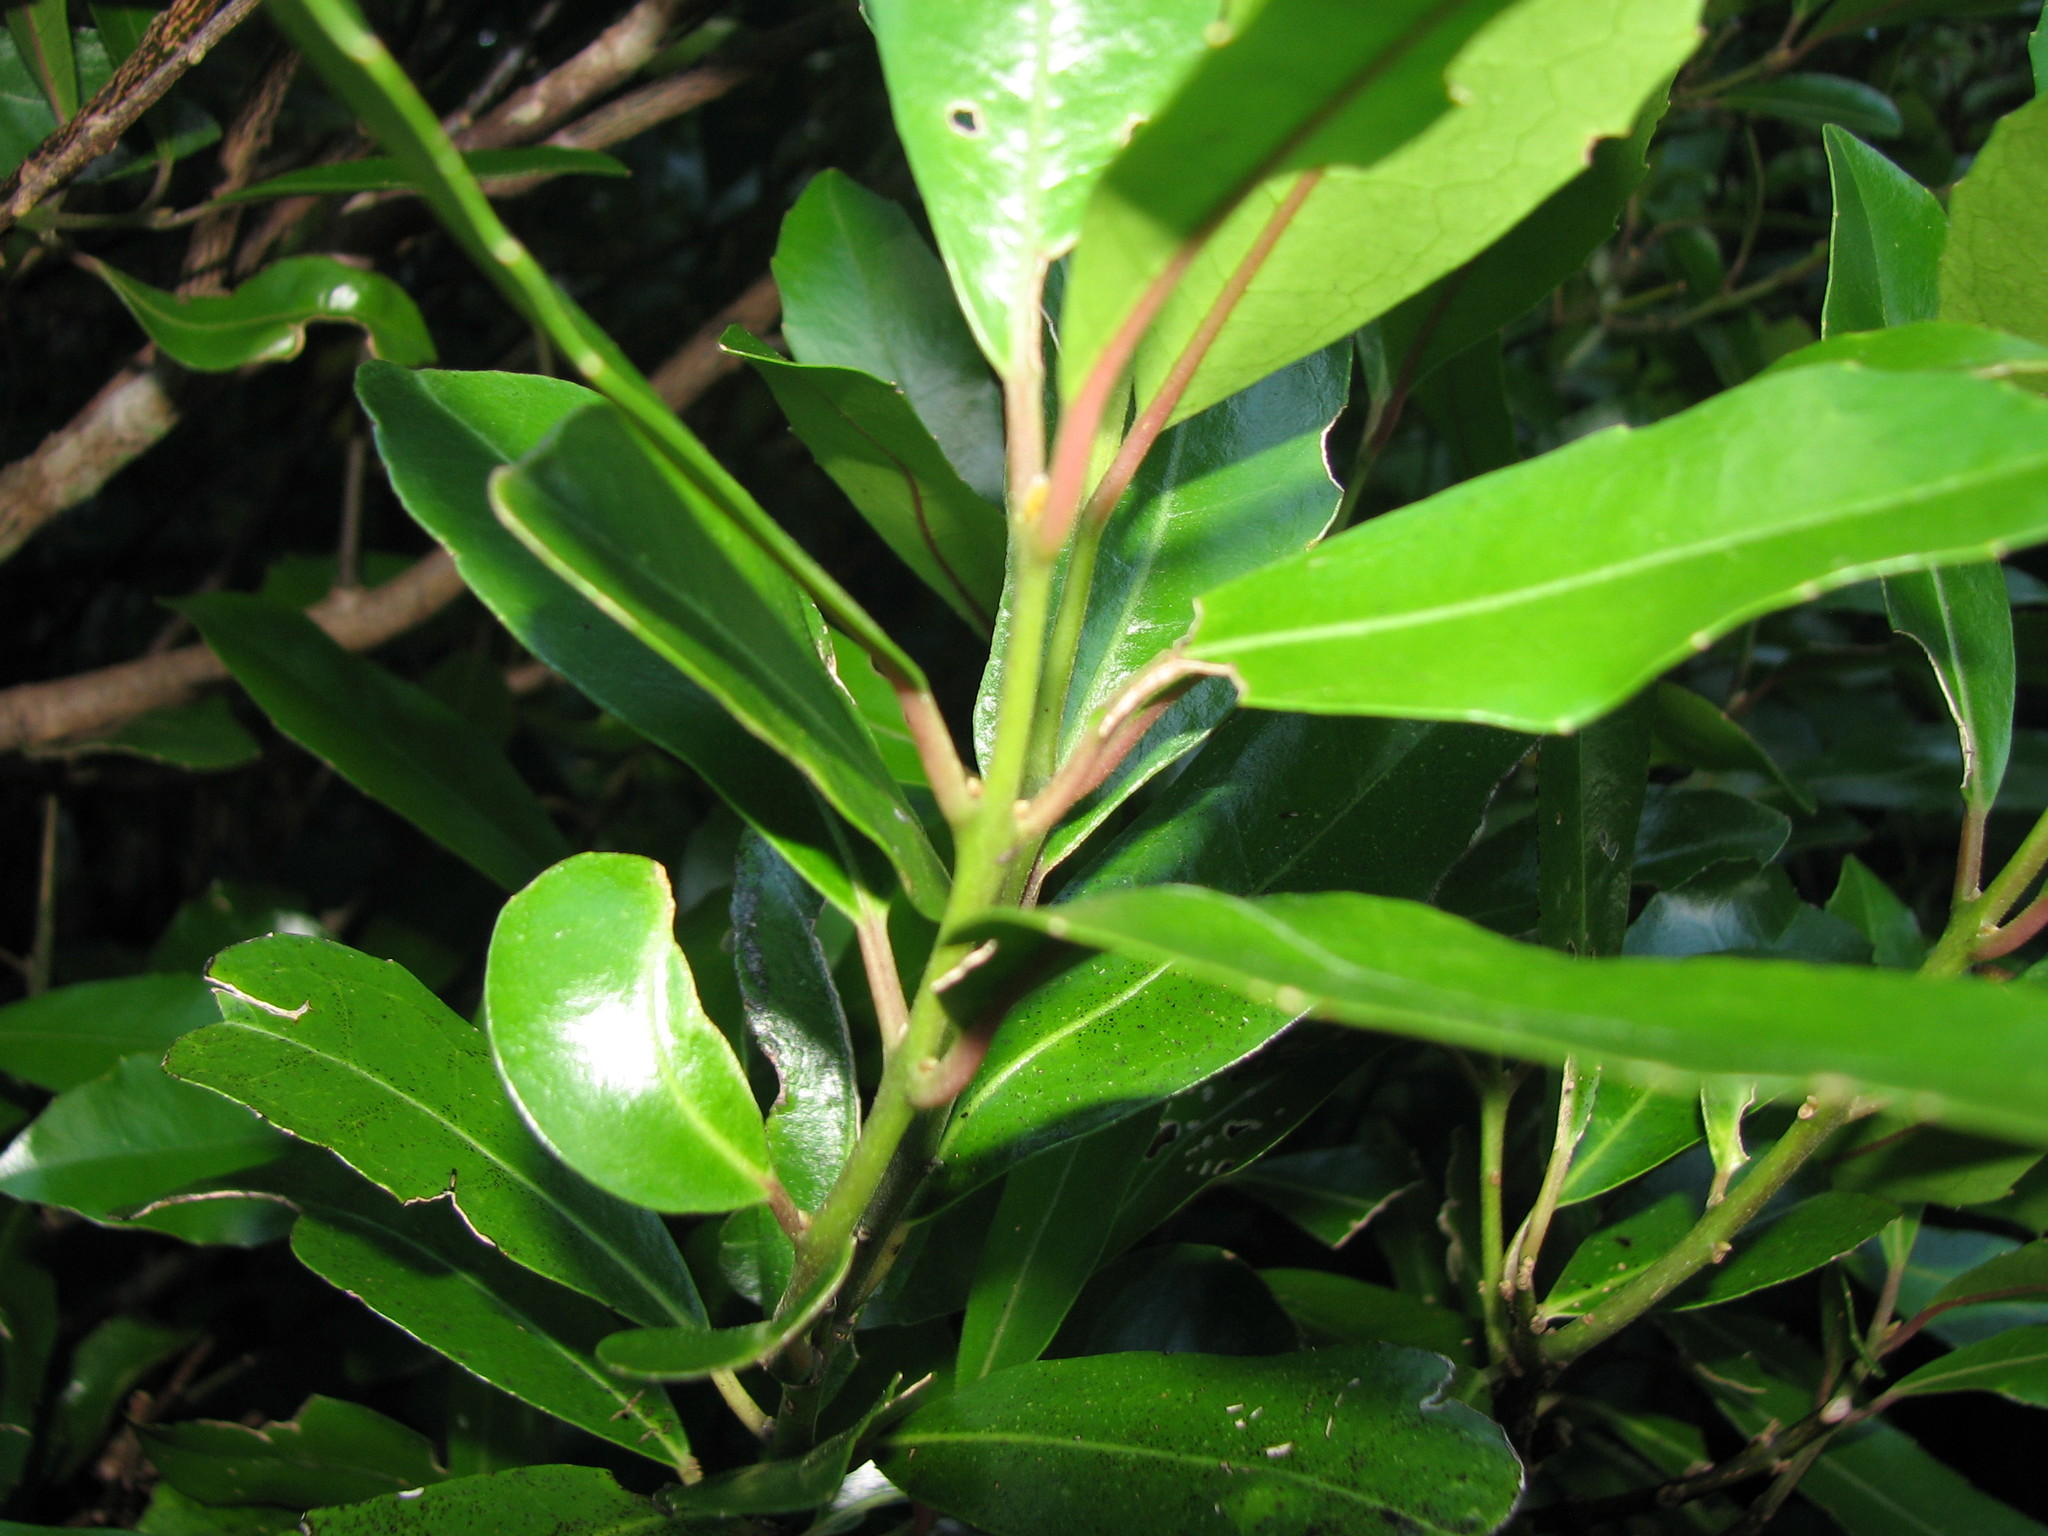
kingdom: Plantae
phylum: Tracheophyta
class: Magnoliopsida
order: Laurales
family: Monimiaceae
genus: Hedycarya
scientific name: Hedycarya arborea
